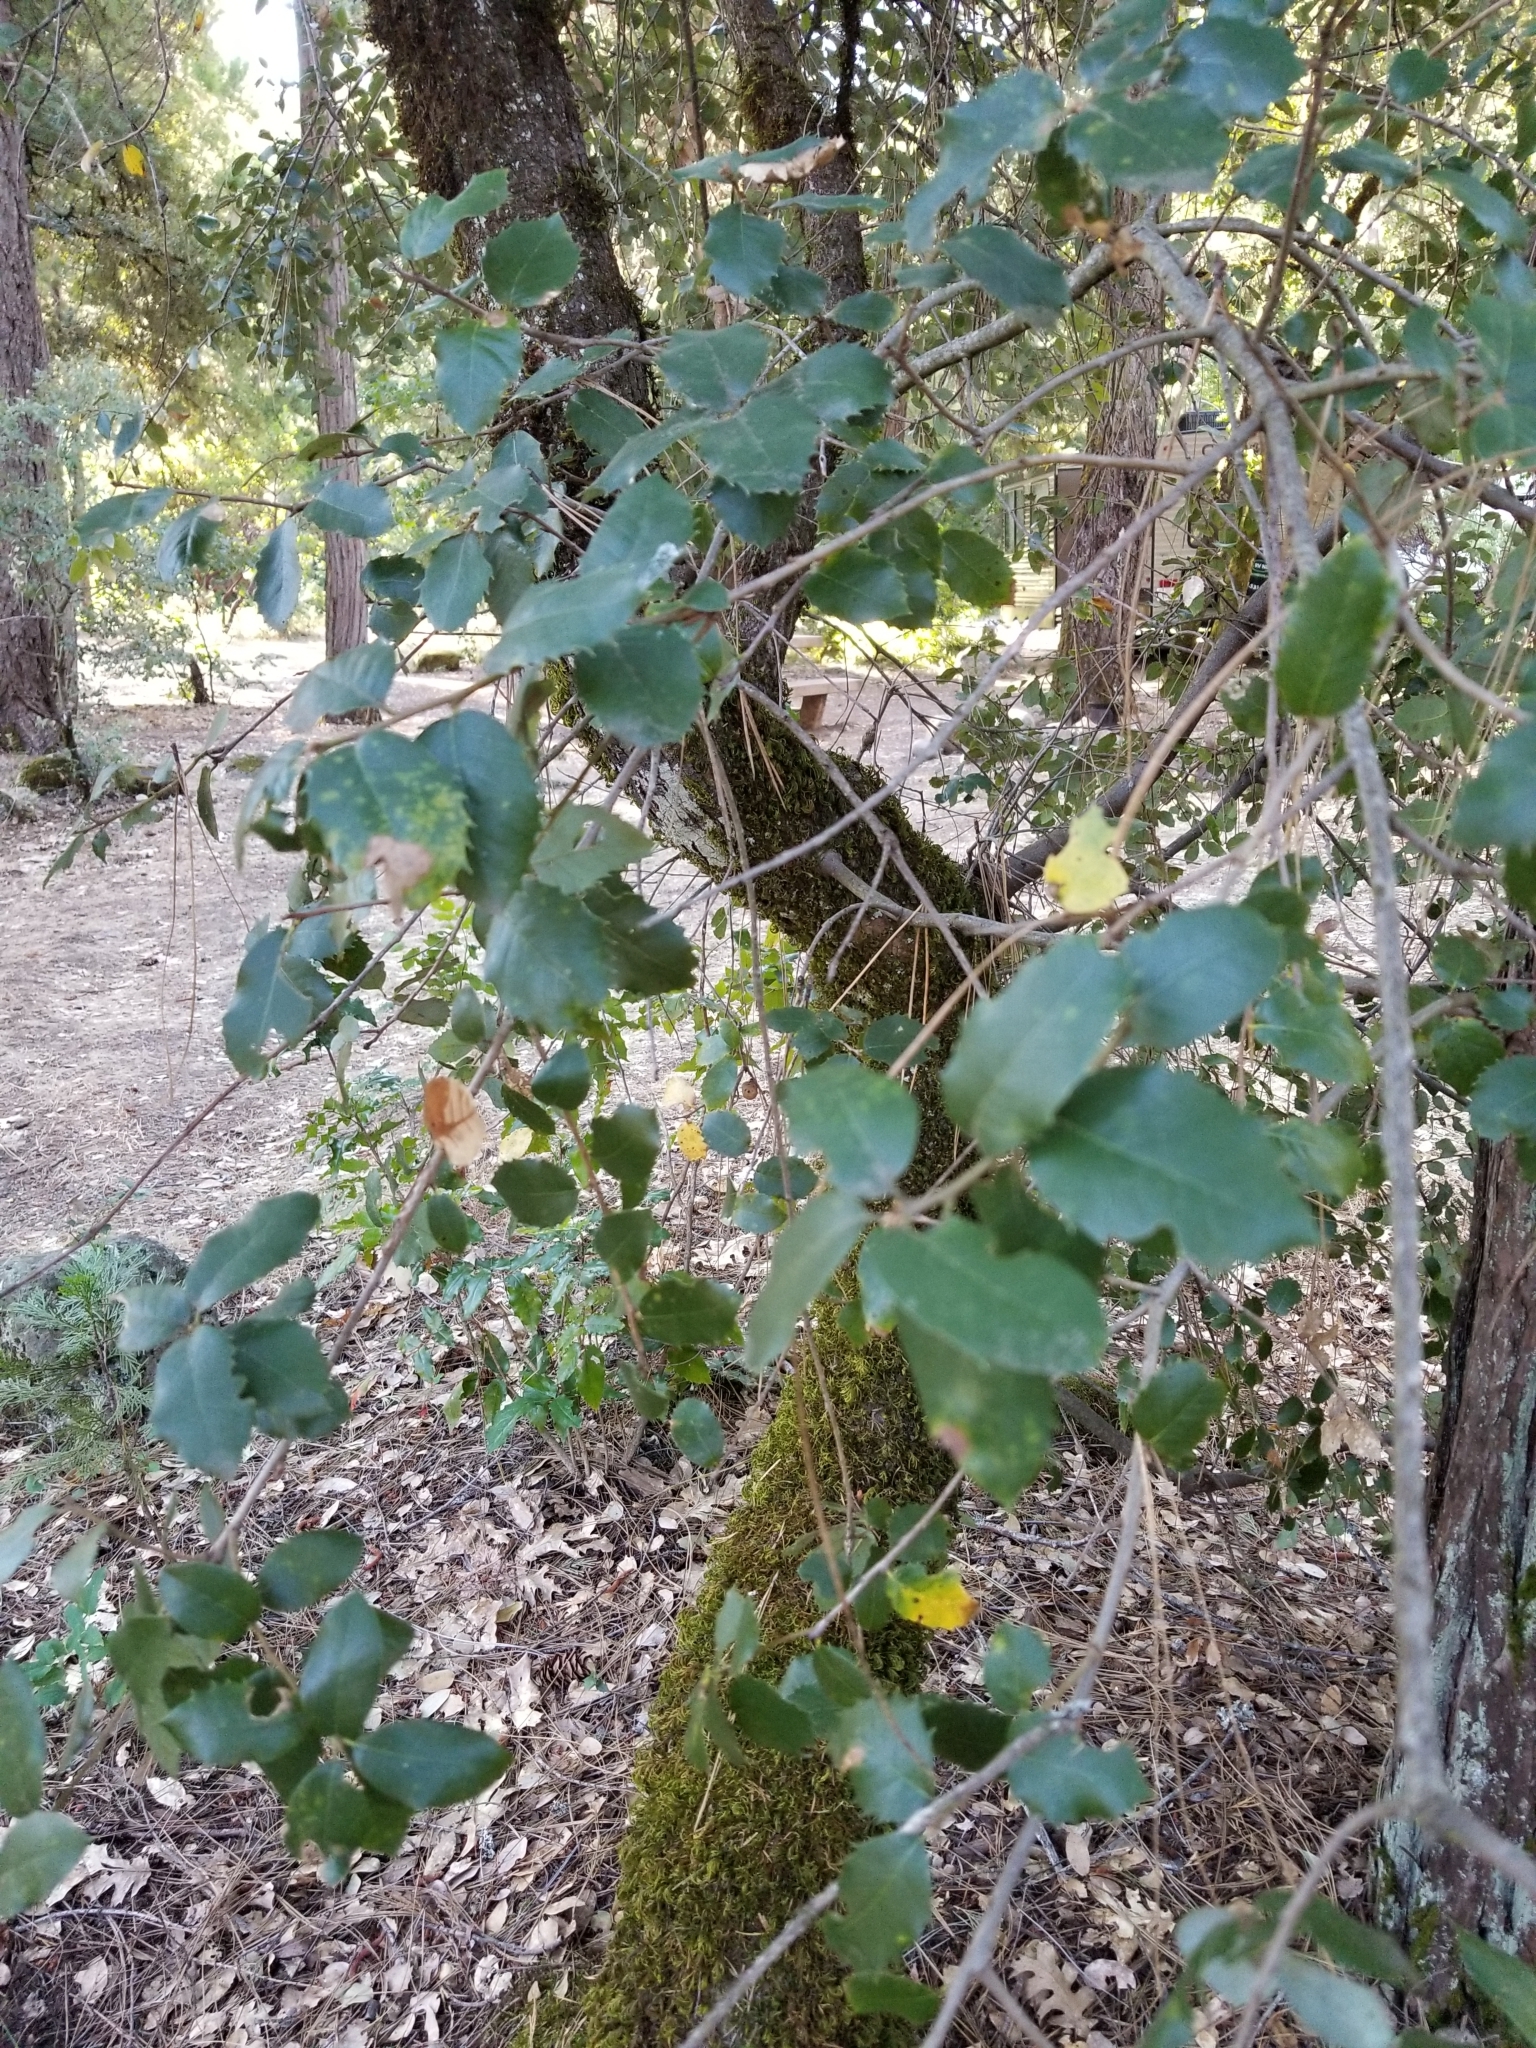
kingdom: Plantae
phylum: Tracheophyta
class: Magnoliopsida
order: Fagales
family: Fagaceae
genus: Quercus
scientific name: Quercus chrysolepis
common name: Canyon live oak
